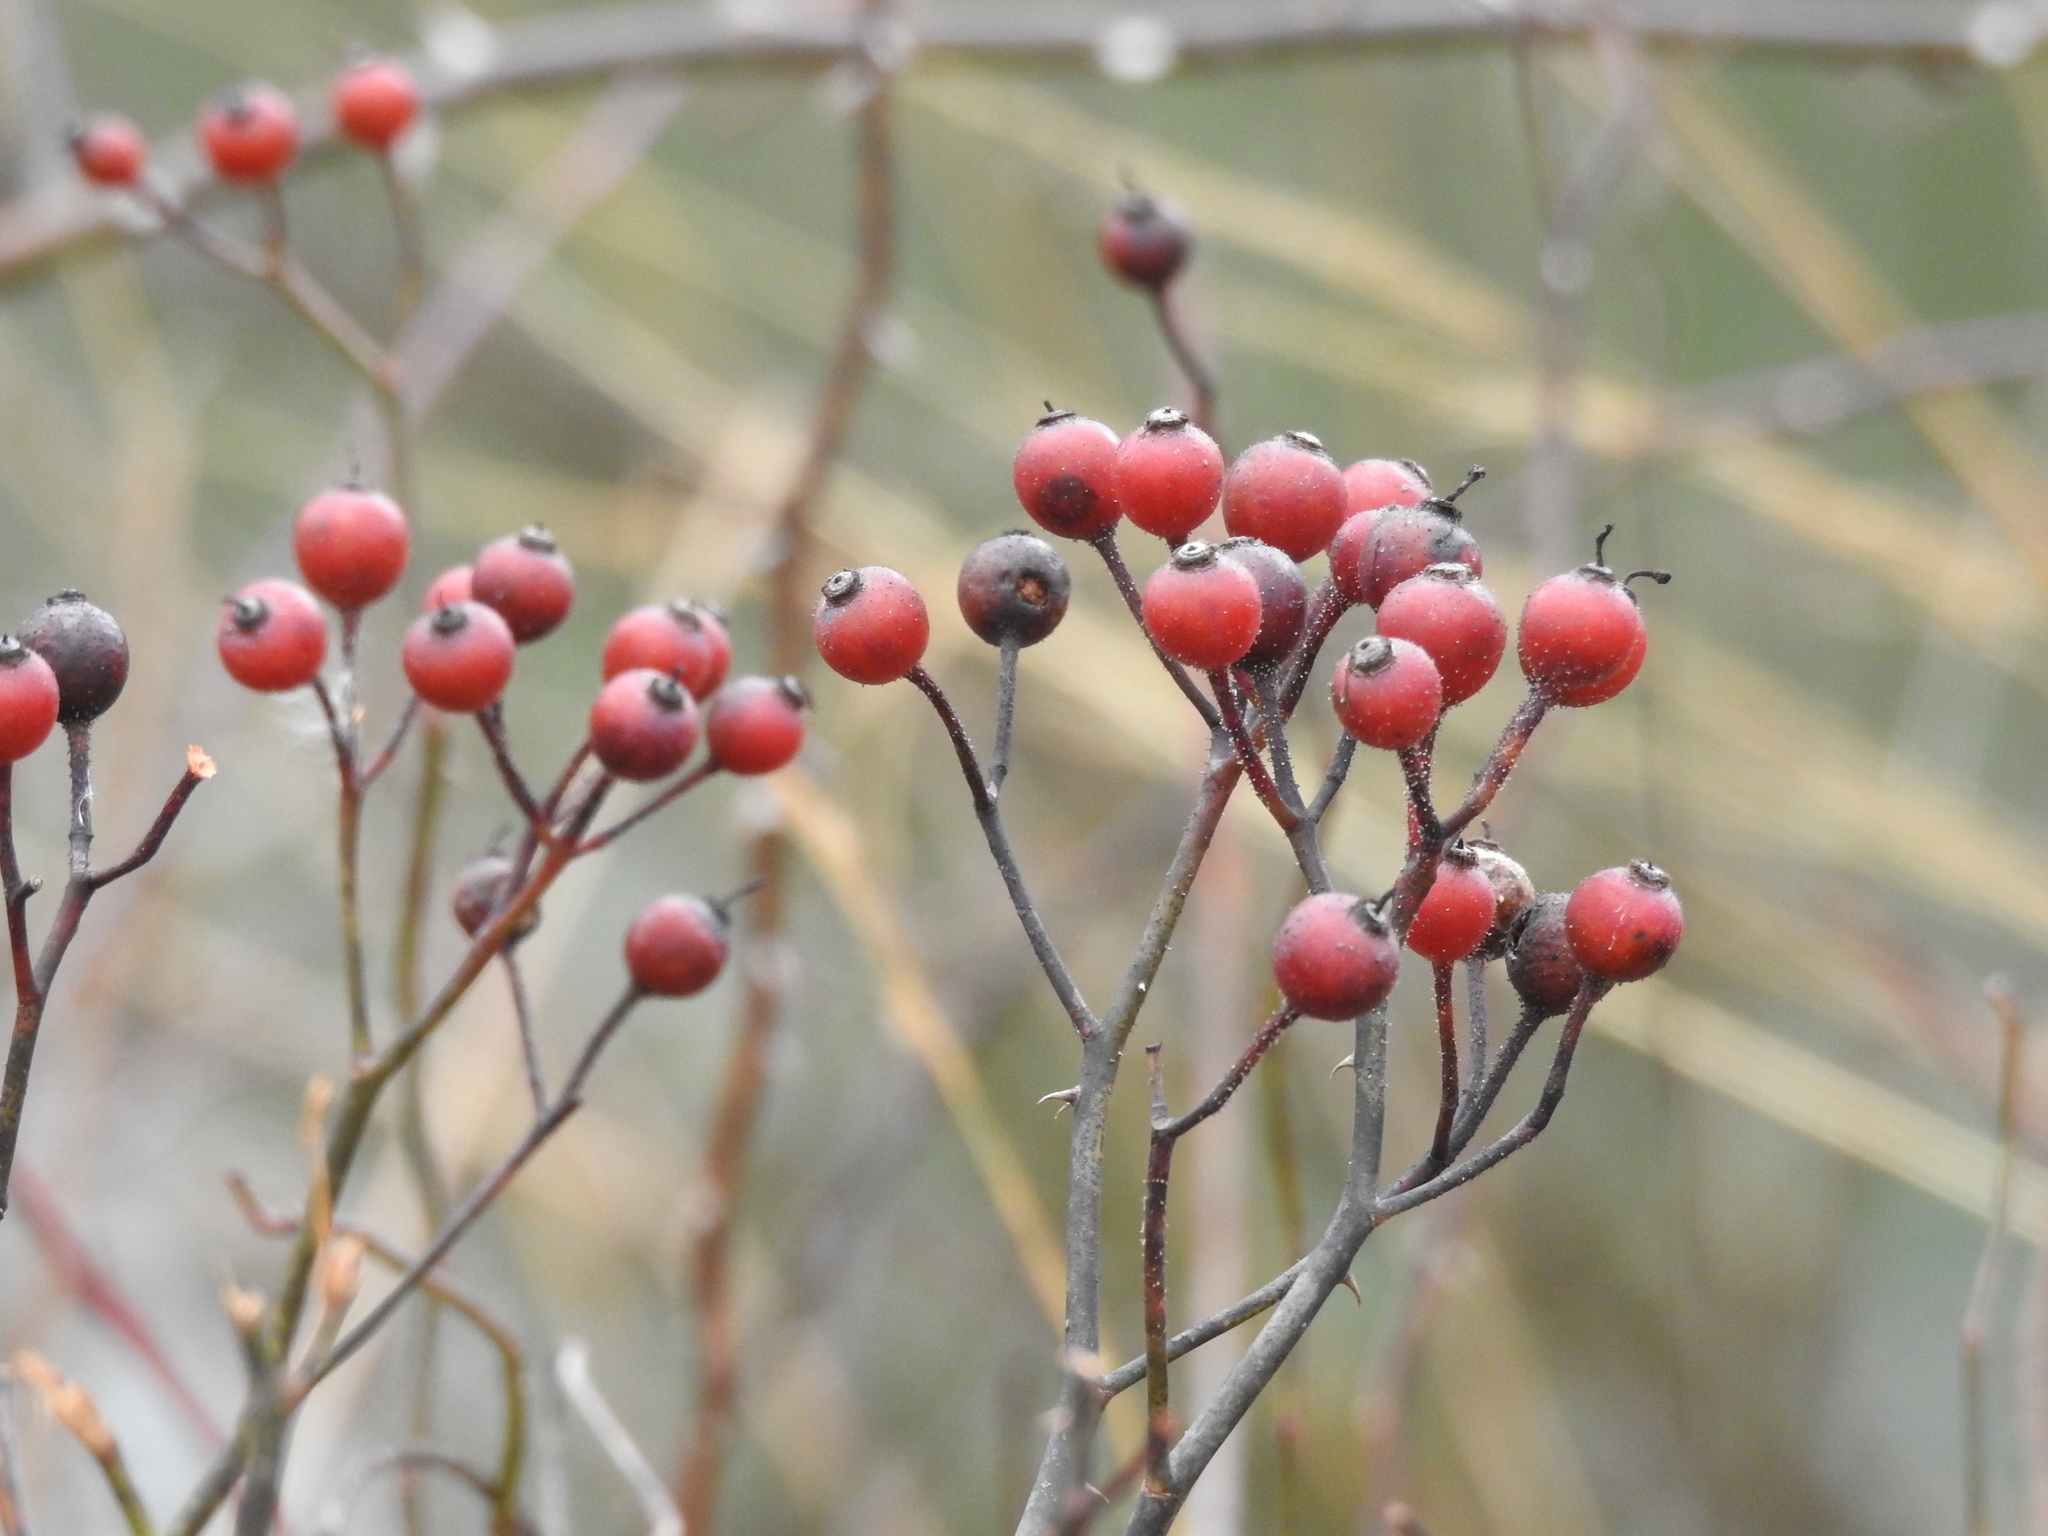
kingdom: Plantae
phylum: Tracheophyta
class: Magnoliopsida
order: Rosales
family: Rosaceae
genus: Rosa
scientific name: Rosa multiflora
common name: Multiflora rose
